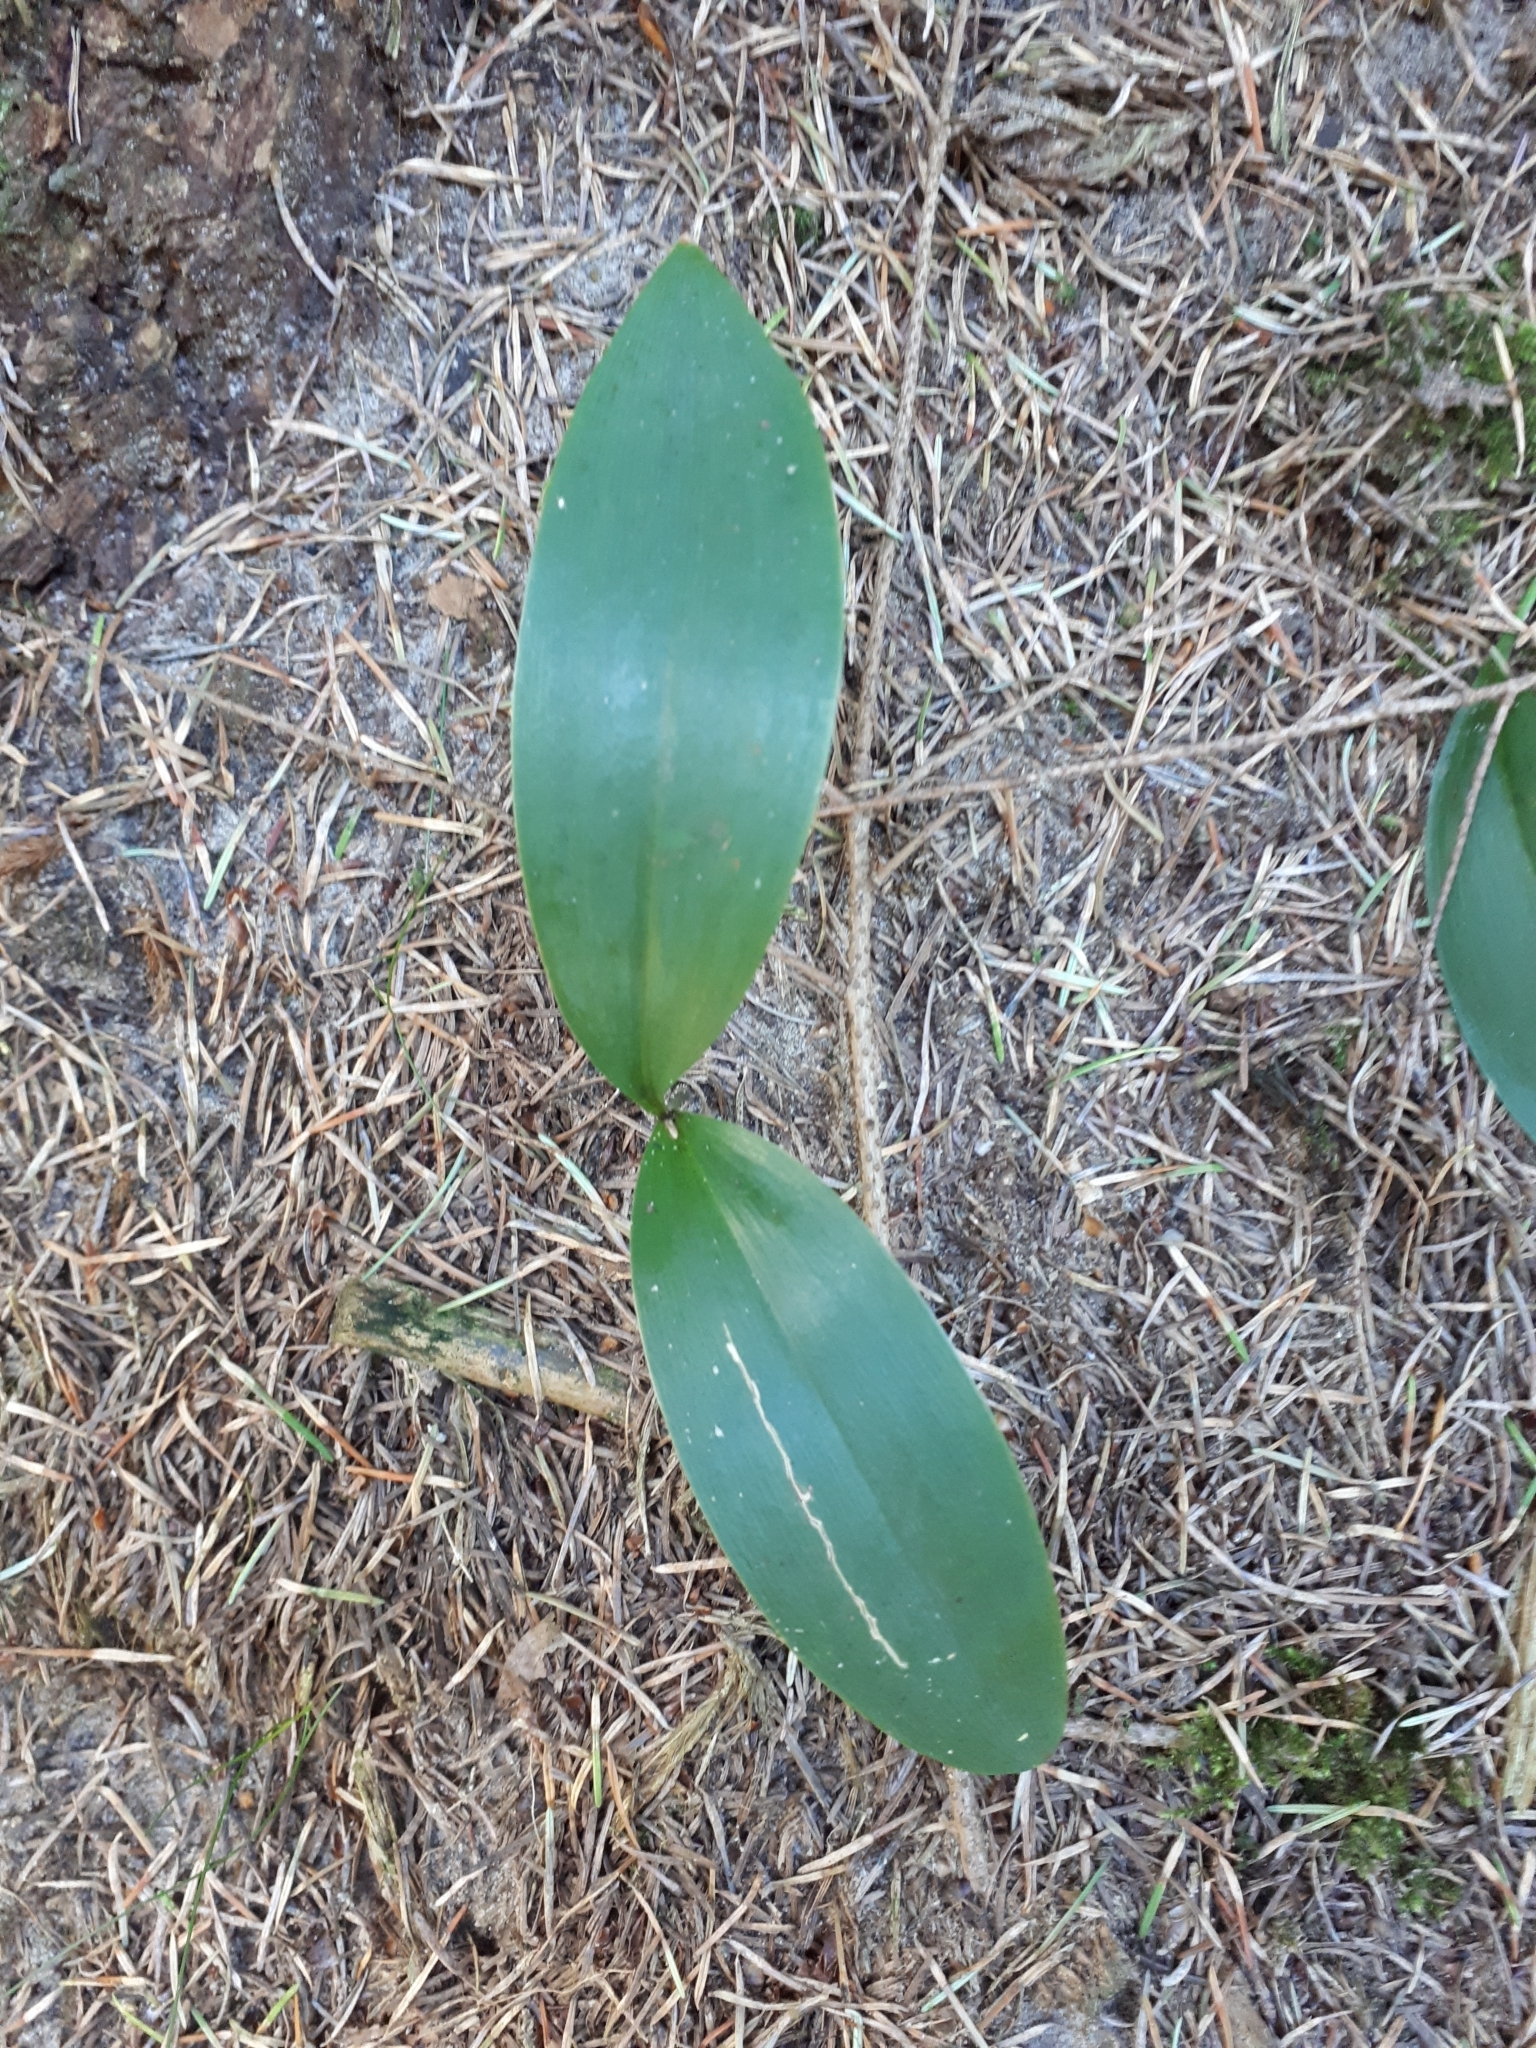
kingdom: Plantae
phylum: Tracheophyta
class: Liliopsida
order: Asparagales
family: Asparagaceae
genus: Convallaria
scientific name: Convallaria majalis
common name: Lily-of-the-valley
